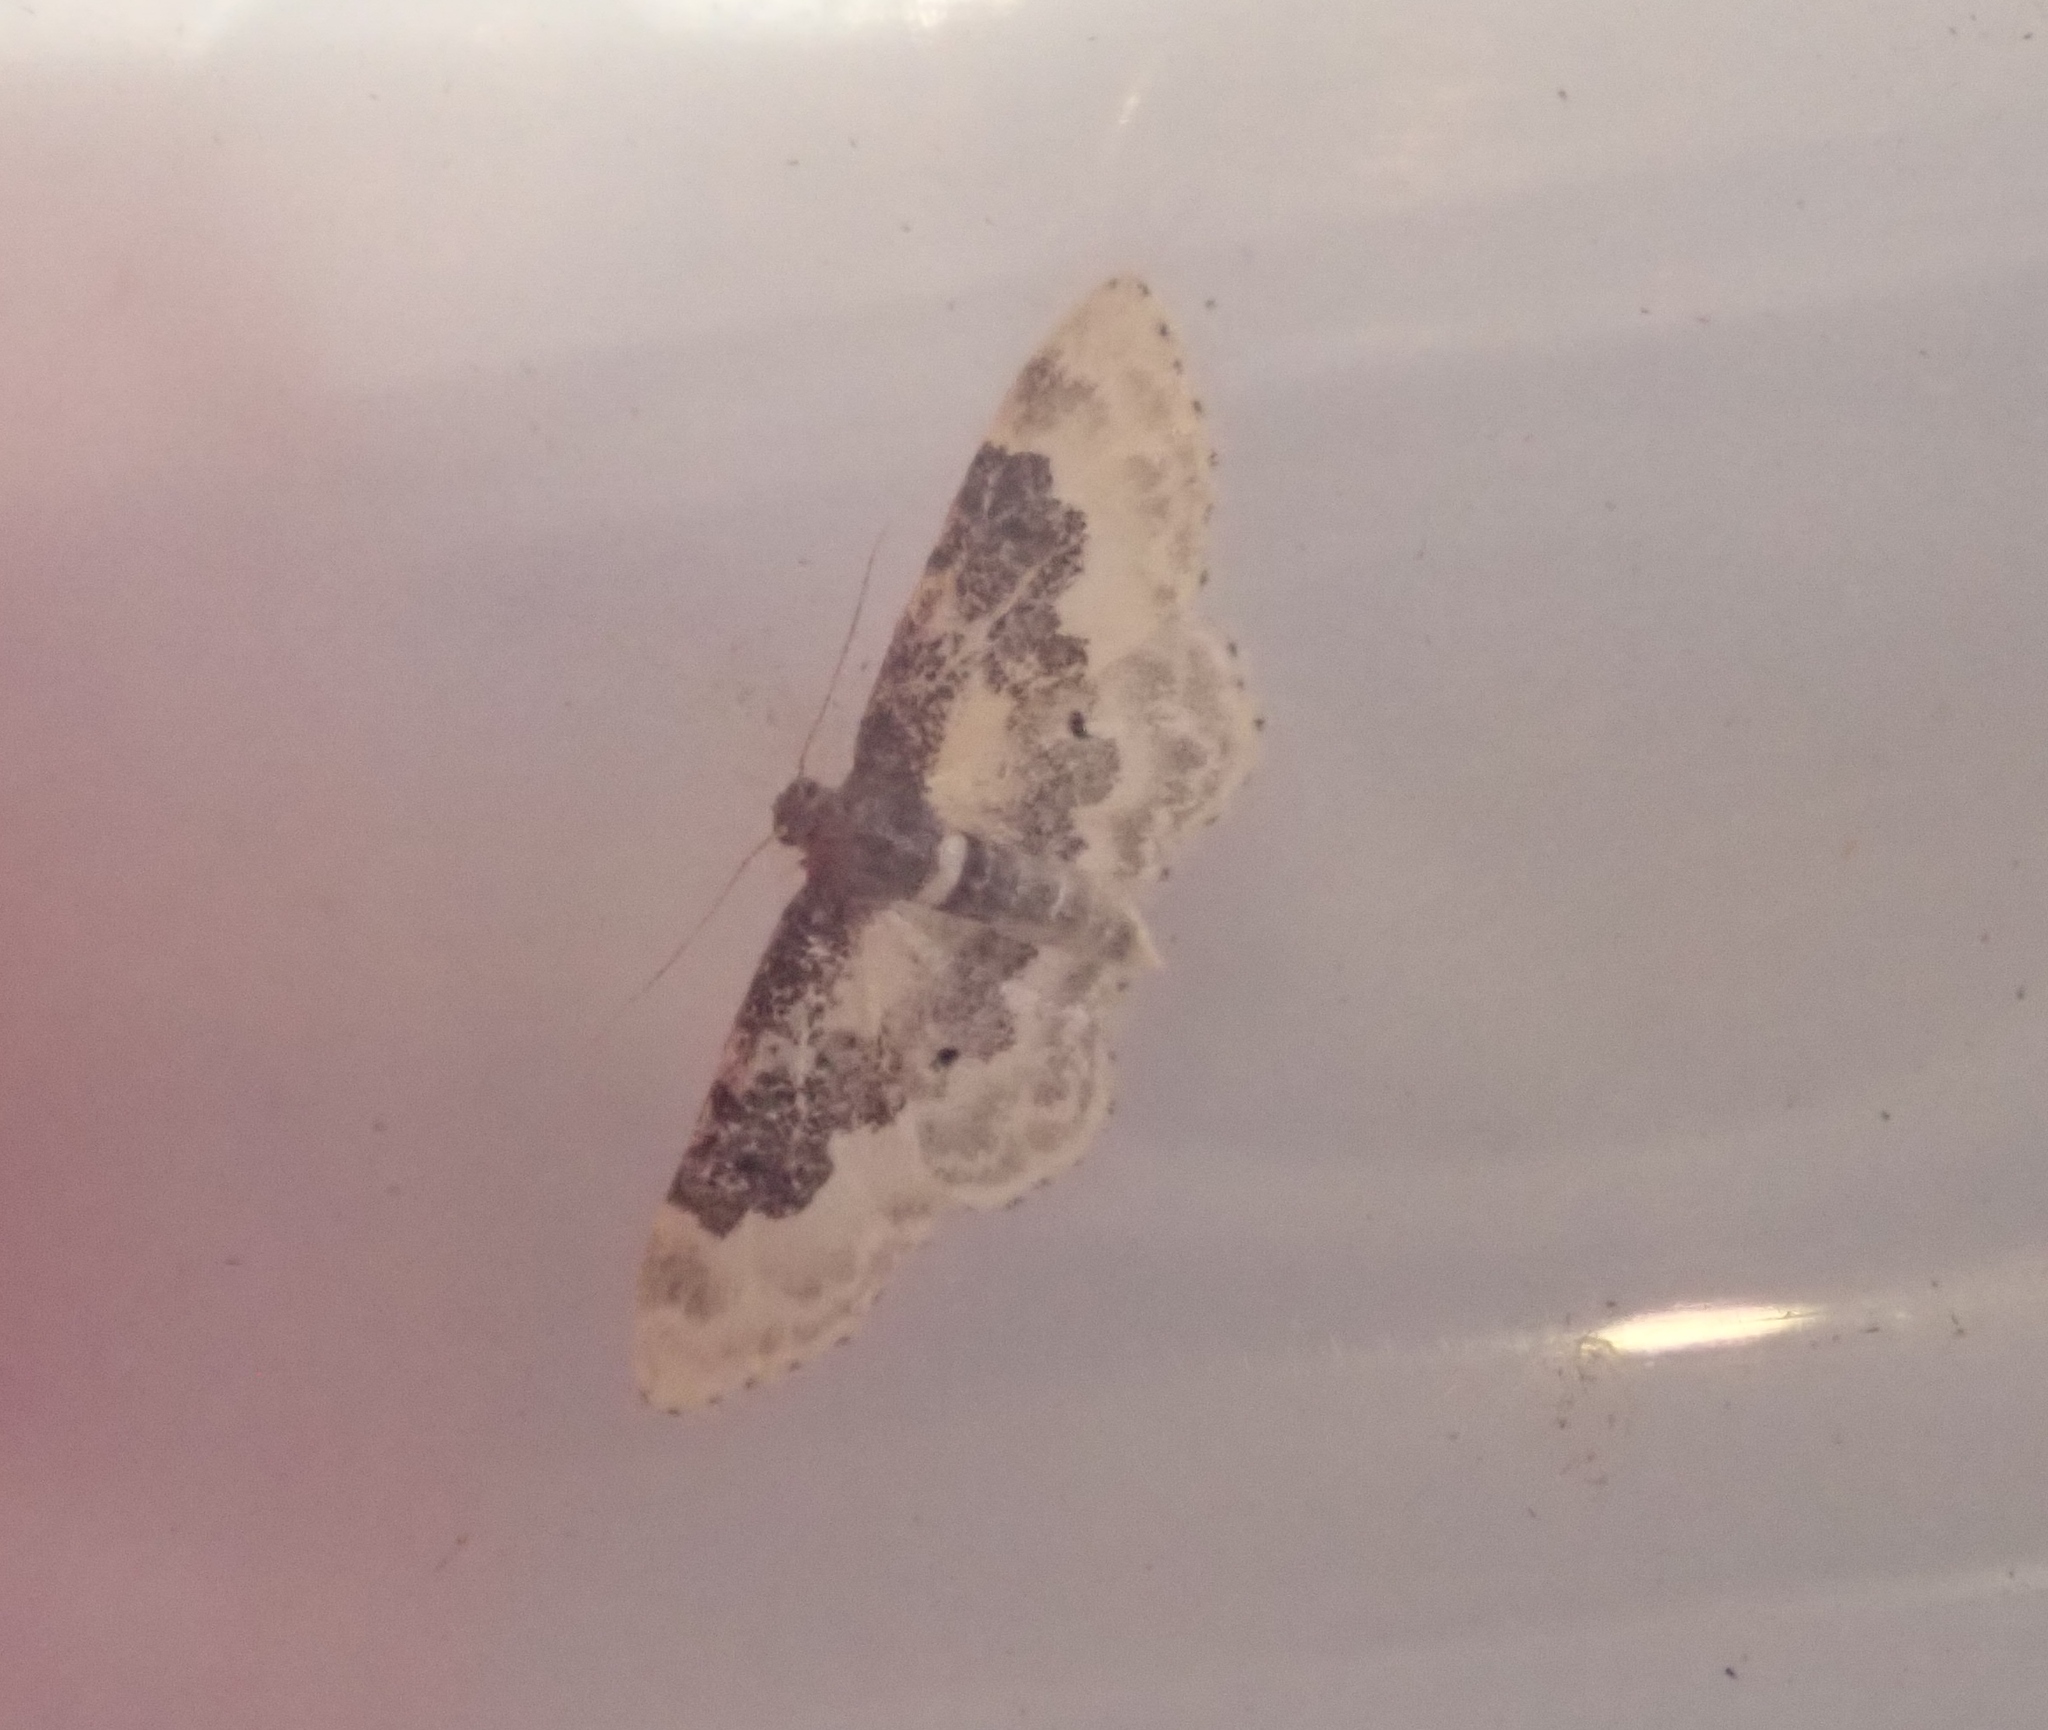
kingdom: Animalia
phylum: Arthropoda
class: Insecta
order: Lepidoptera
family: Geometridae
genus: Idaea
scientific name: Idaea rusticata
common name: Least carpet
